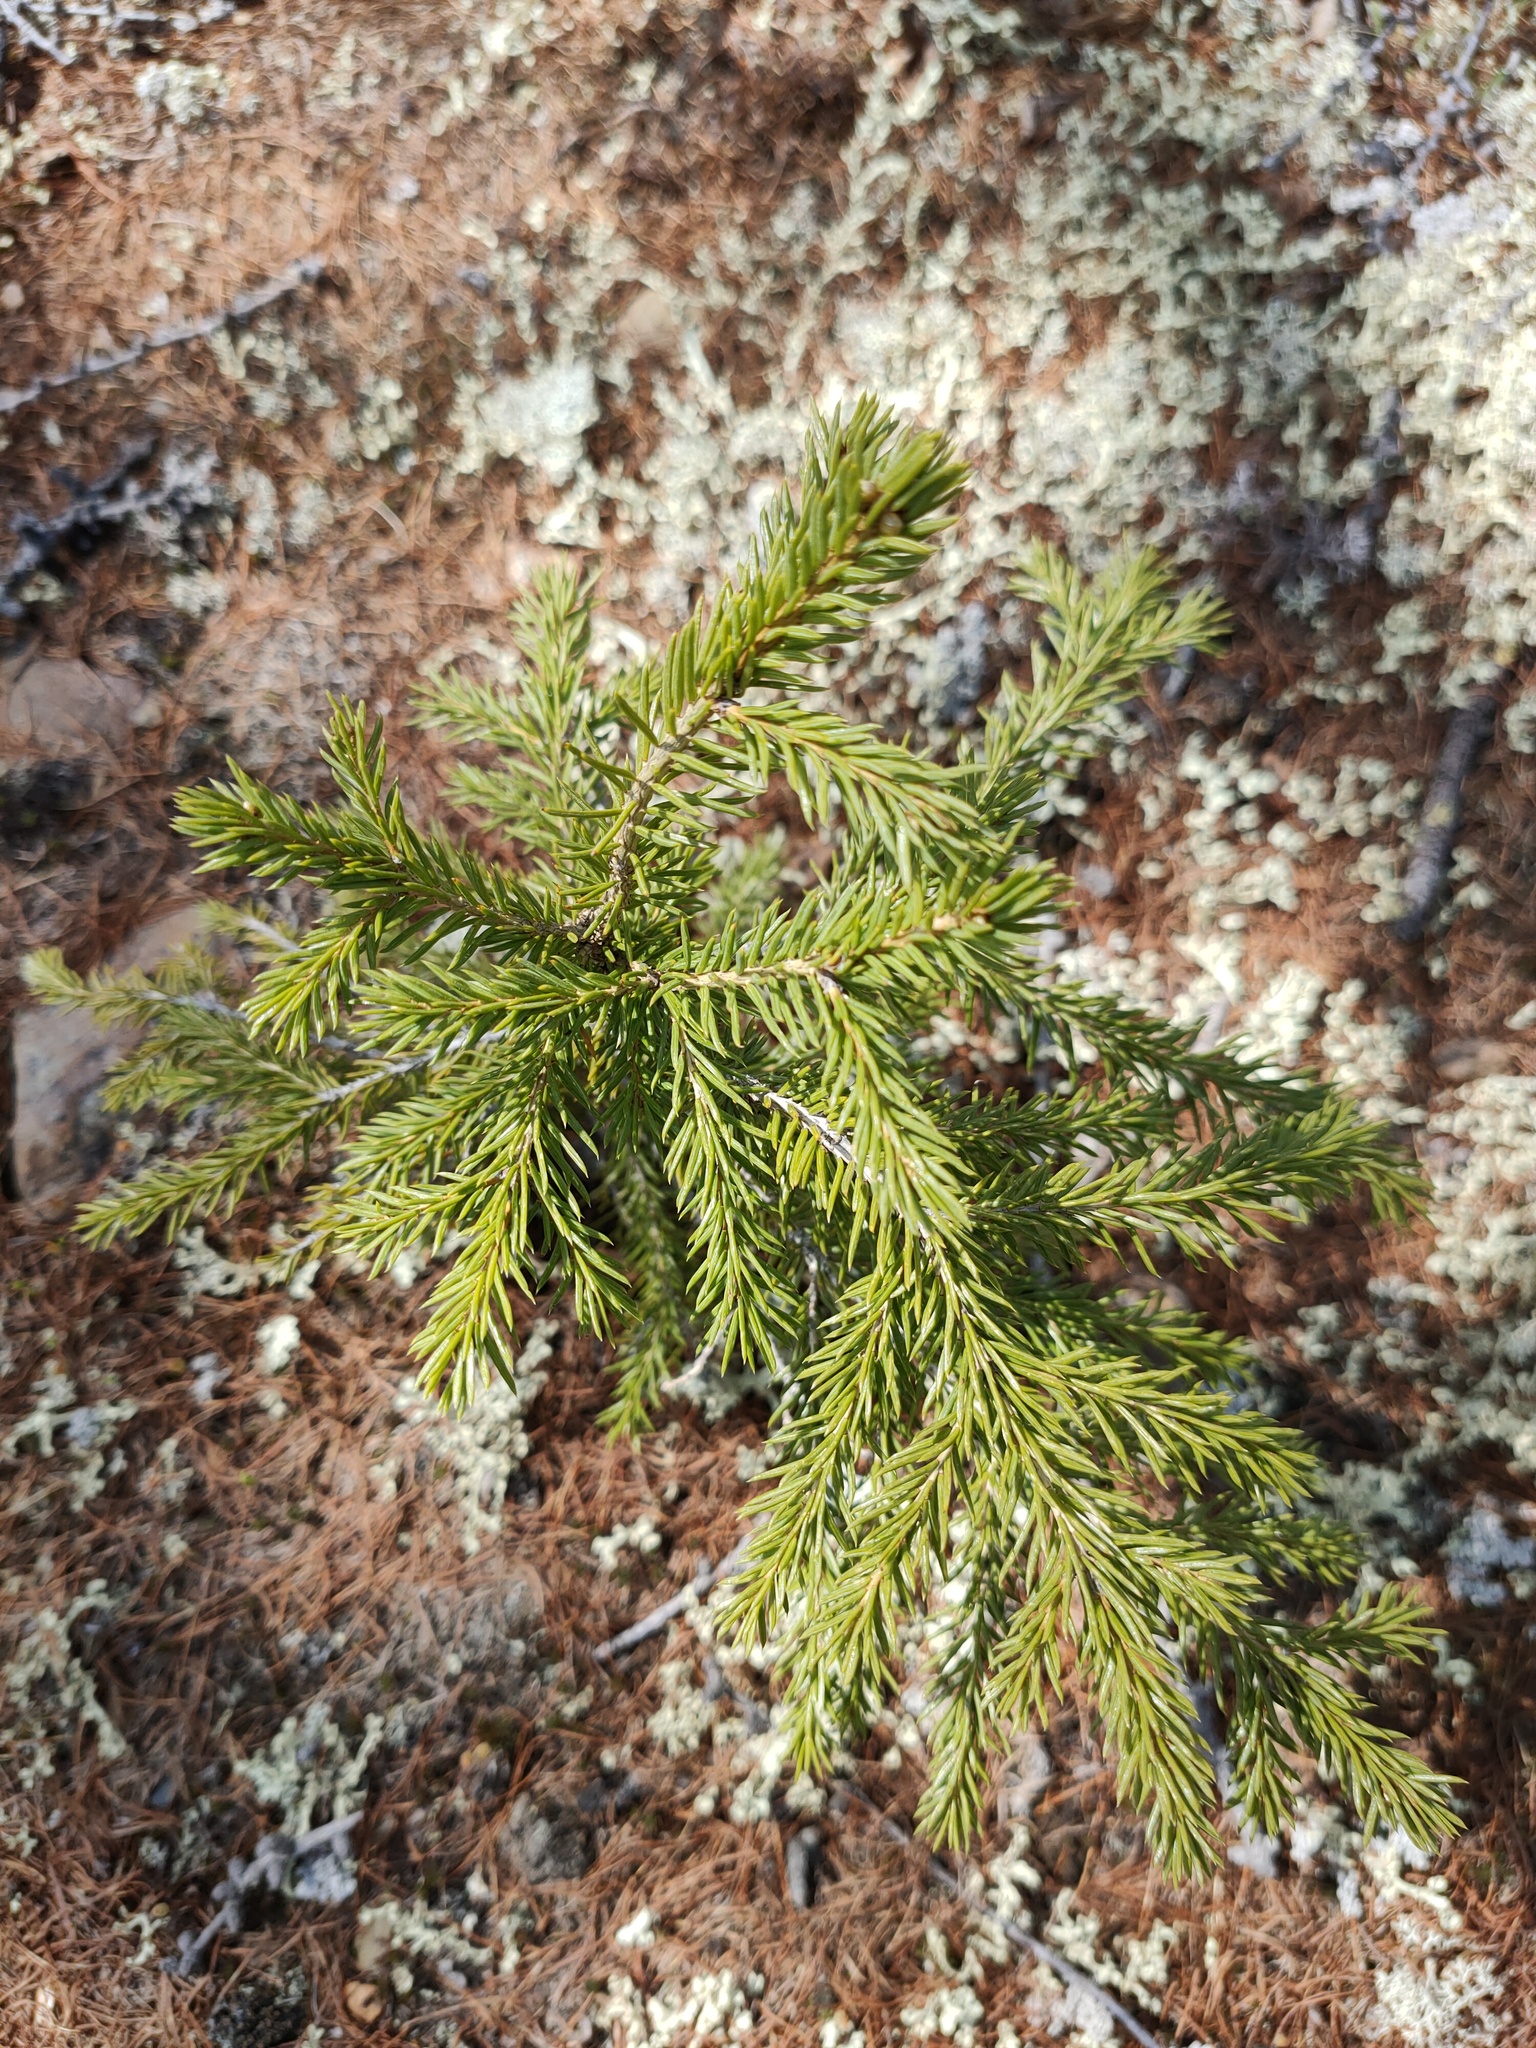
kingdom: Plantae
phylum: Tracheophyta
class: Pinopsida
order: Pinales
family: Pinaceae
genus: Picea
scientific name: Picea obovata
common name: Siberian spruce
